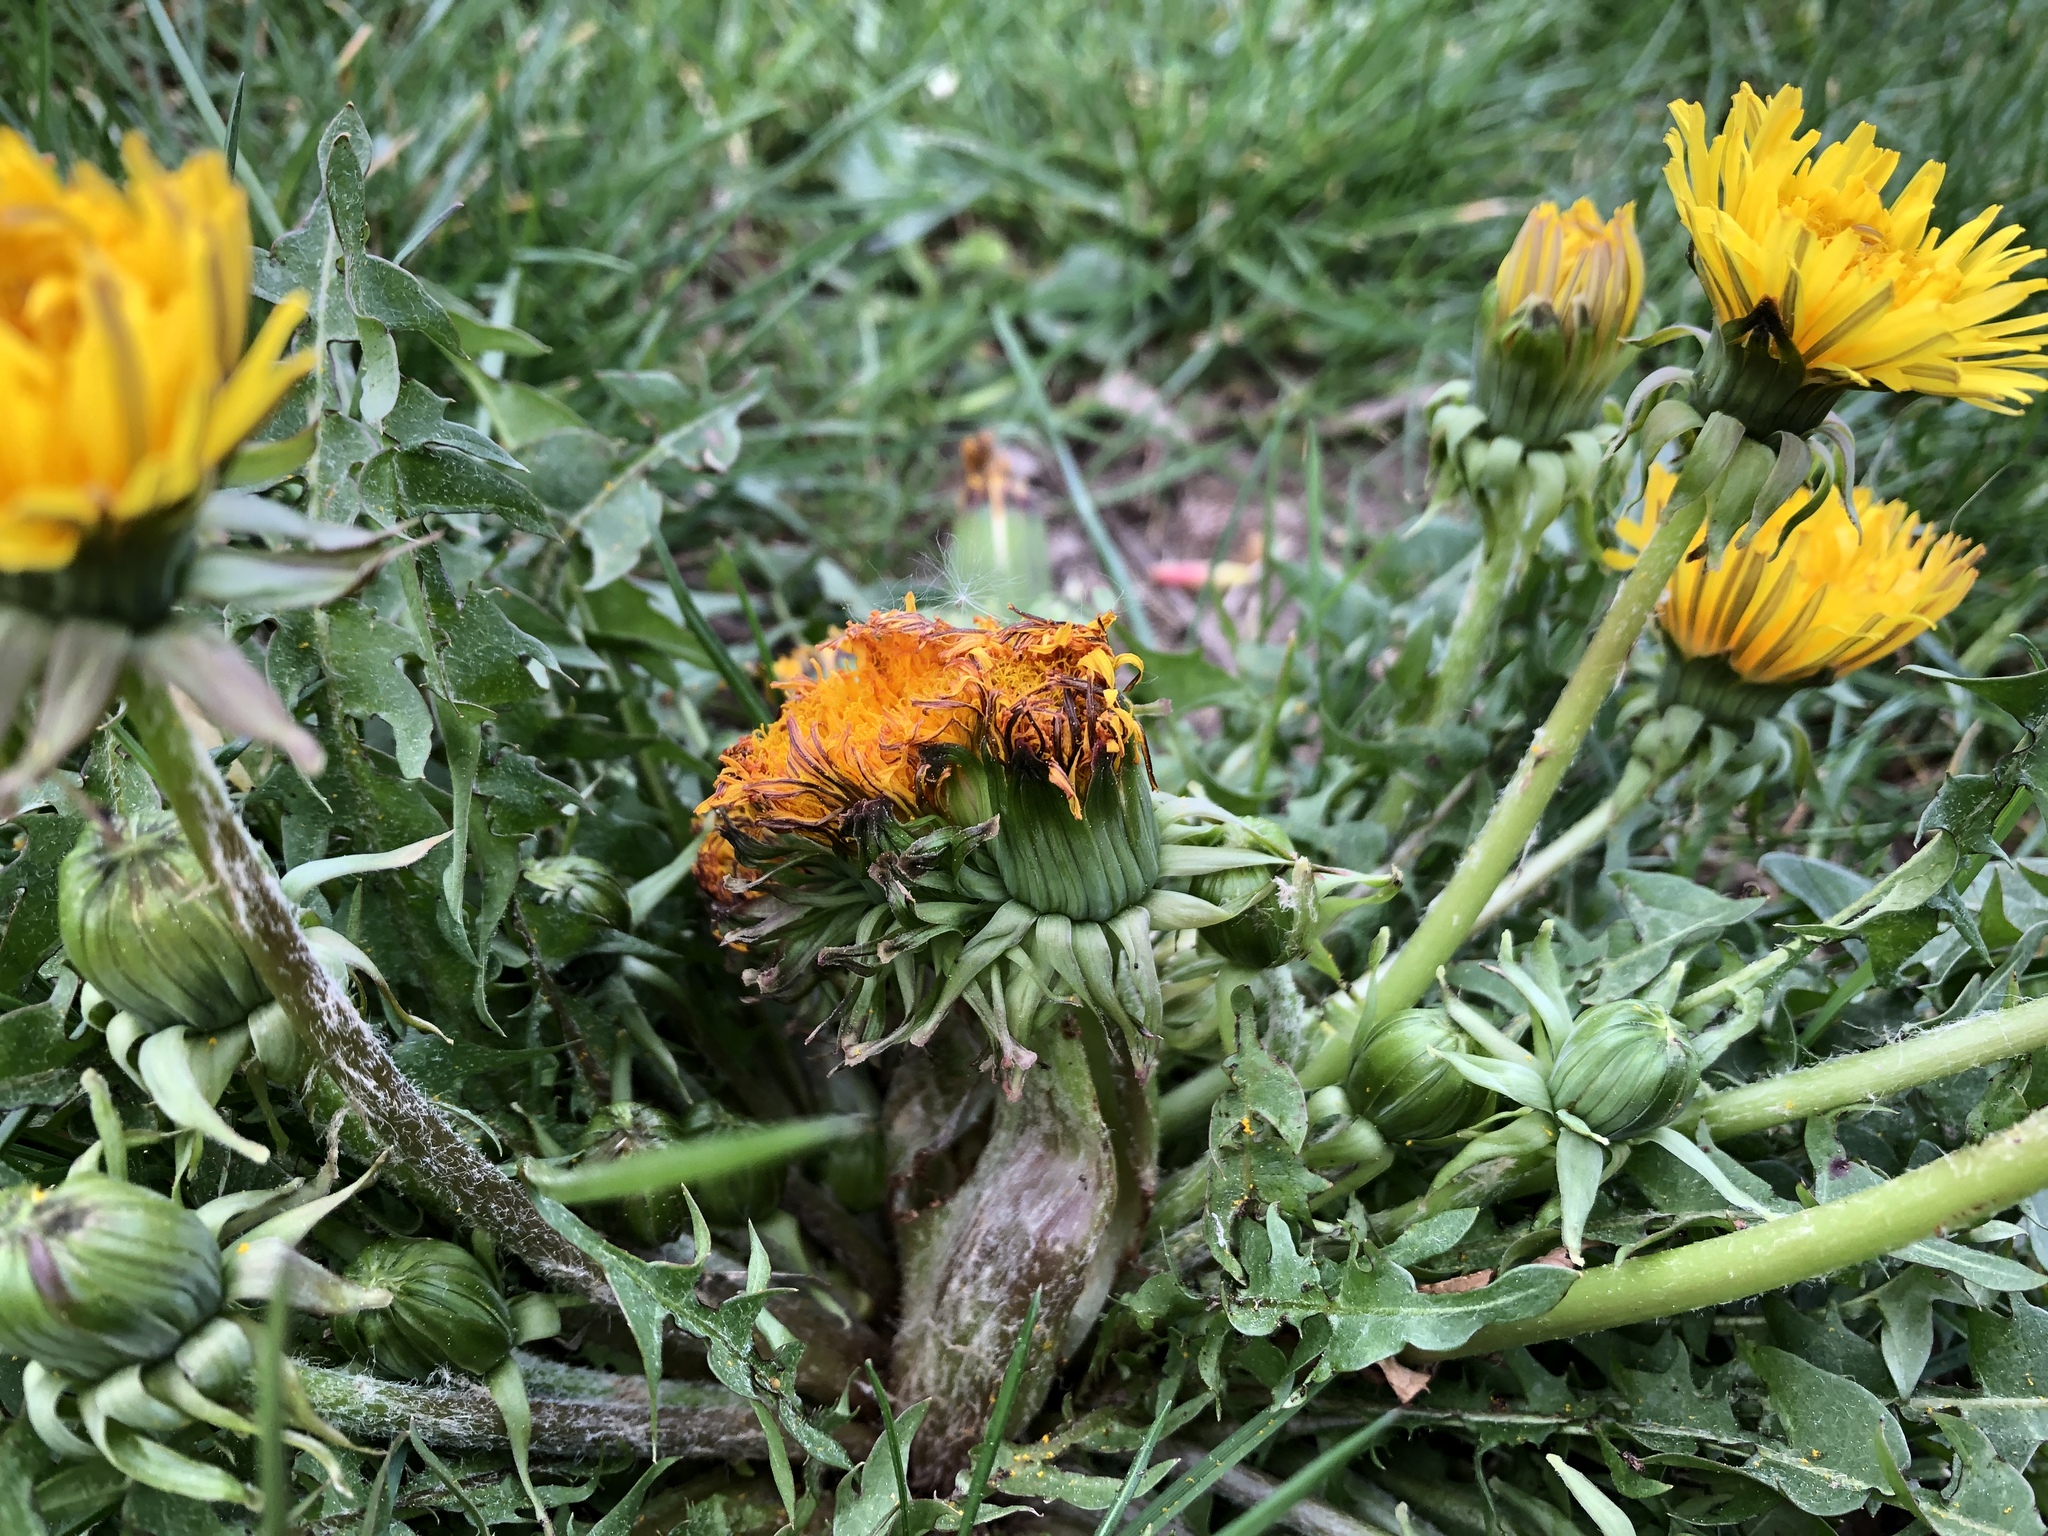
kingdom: Plantae
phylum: Tracheophyta
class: Magnoliopsida
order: Asterales
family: Asteraceae
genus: Taraxacum
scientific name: Taraxacum officinale
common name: Common dandelion
